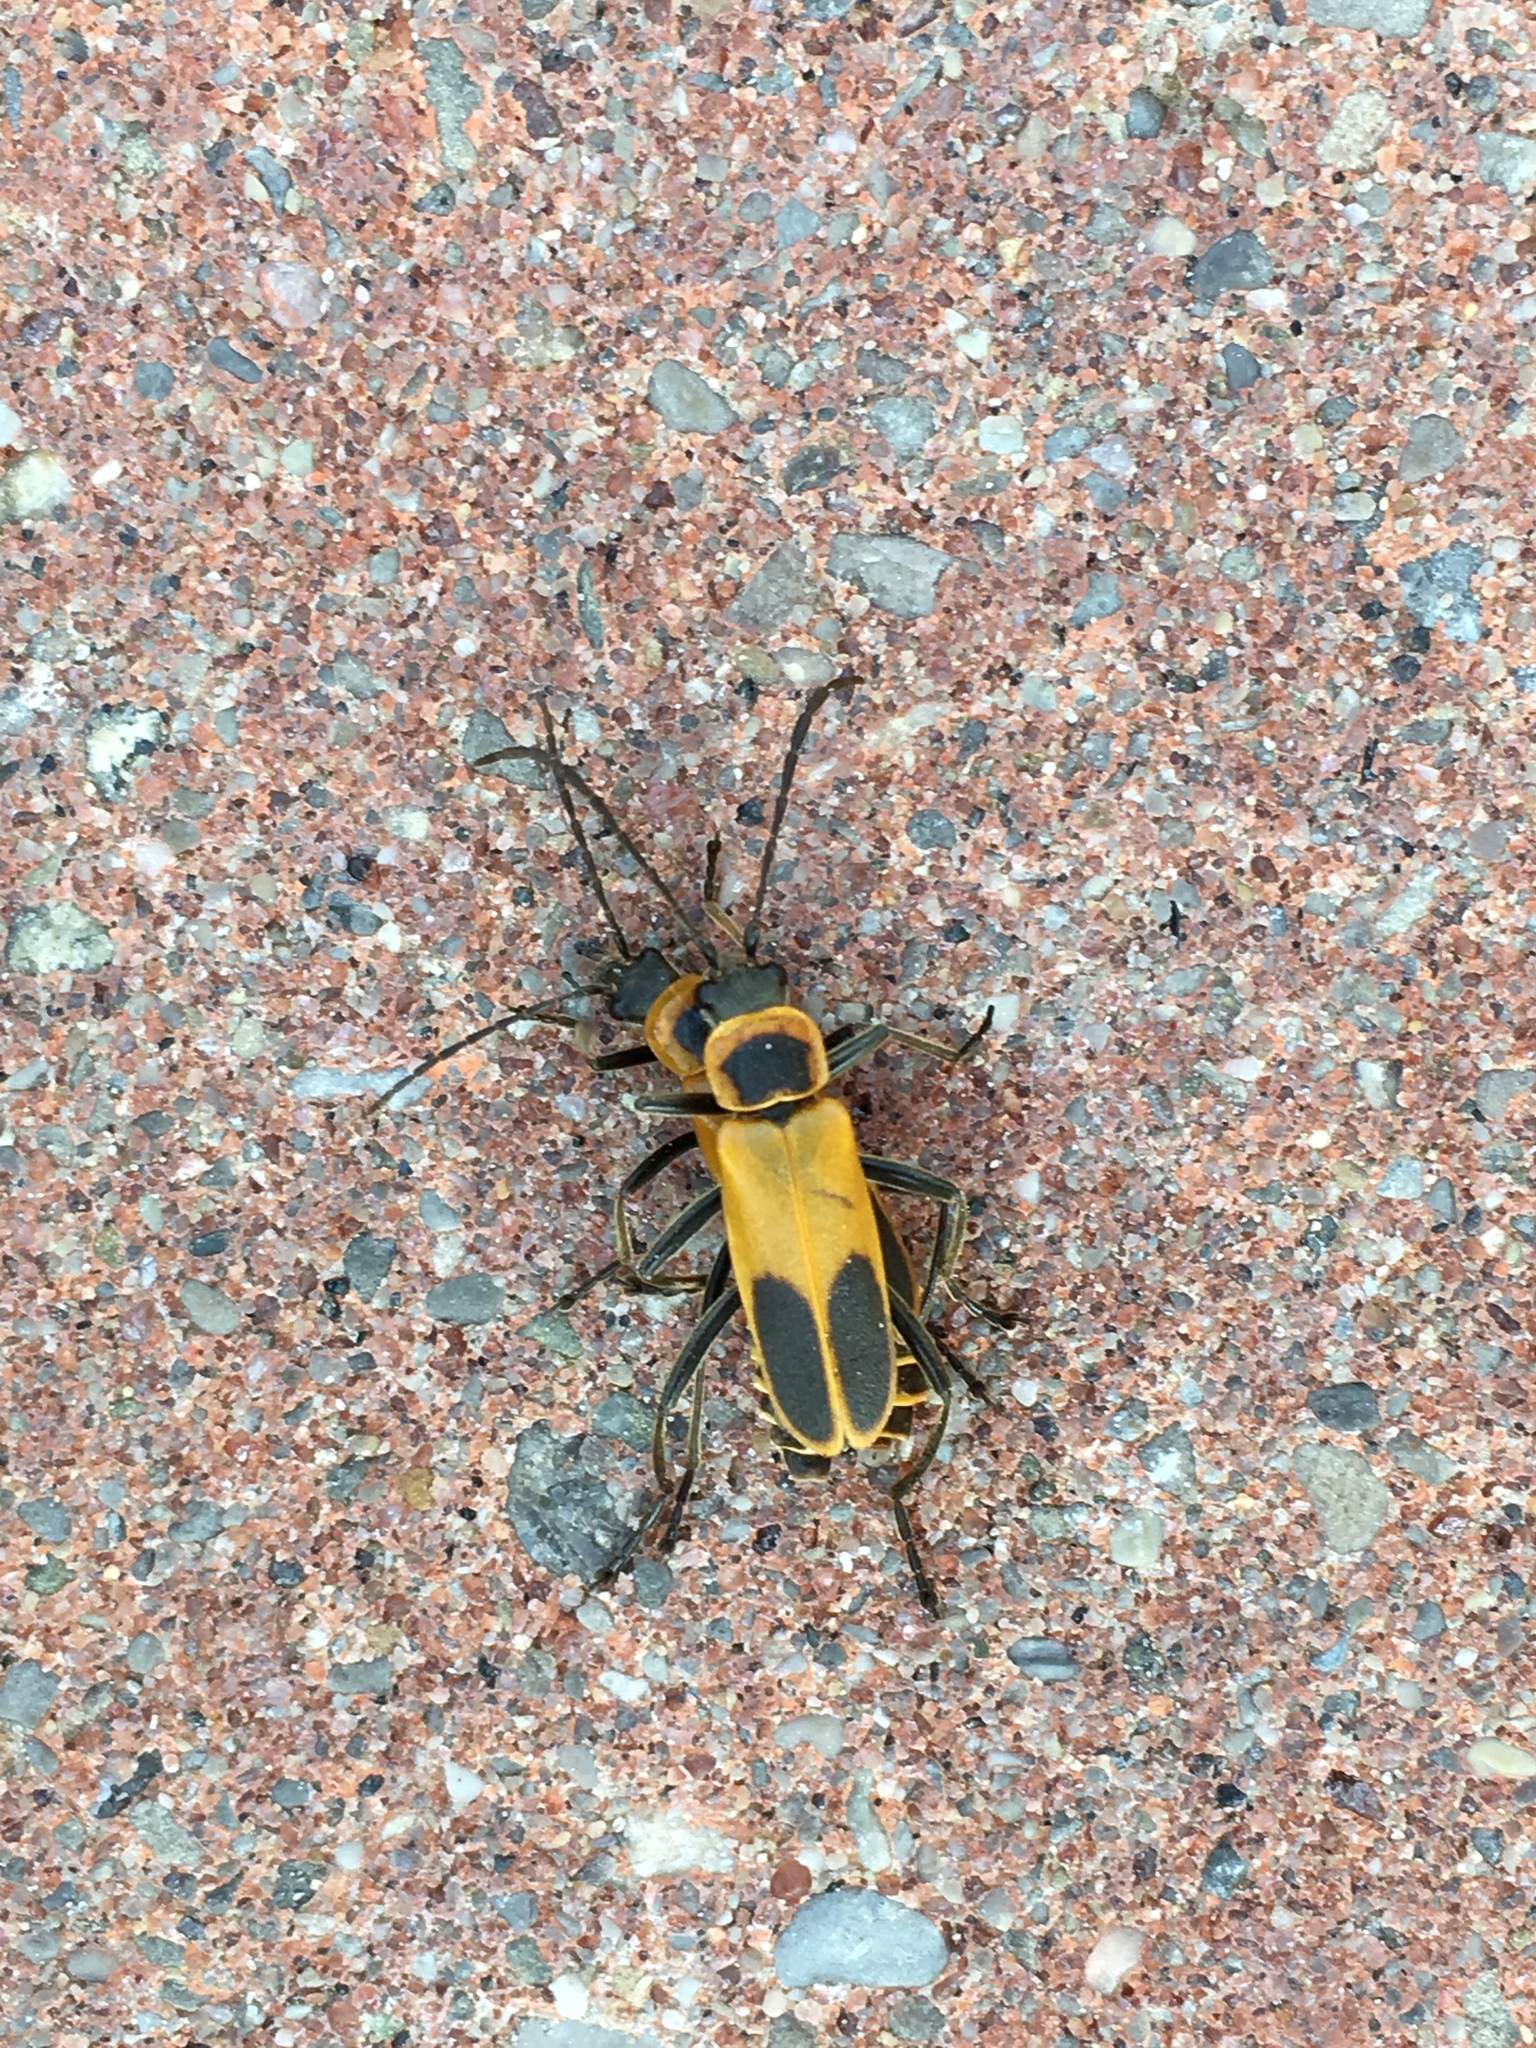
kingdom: Animalia
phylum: Arthropoda
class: Insecta
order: Coleoptera
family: Cantharidae
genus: Chauliognathus
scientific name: Chauliognathus pensylvanicus
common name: Goldenrod soldier beetle
